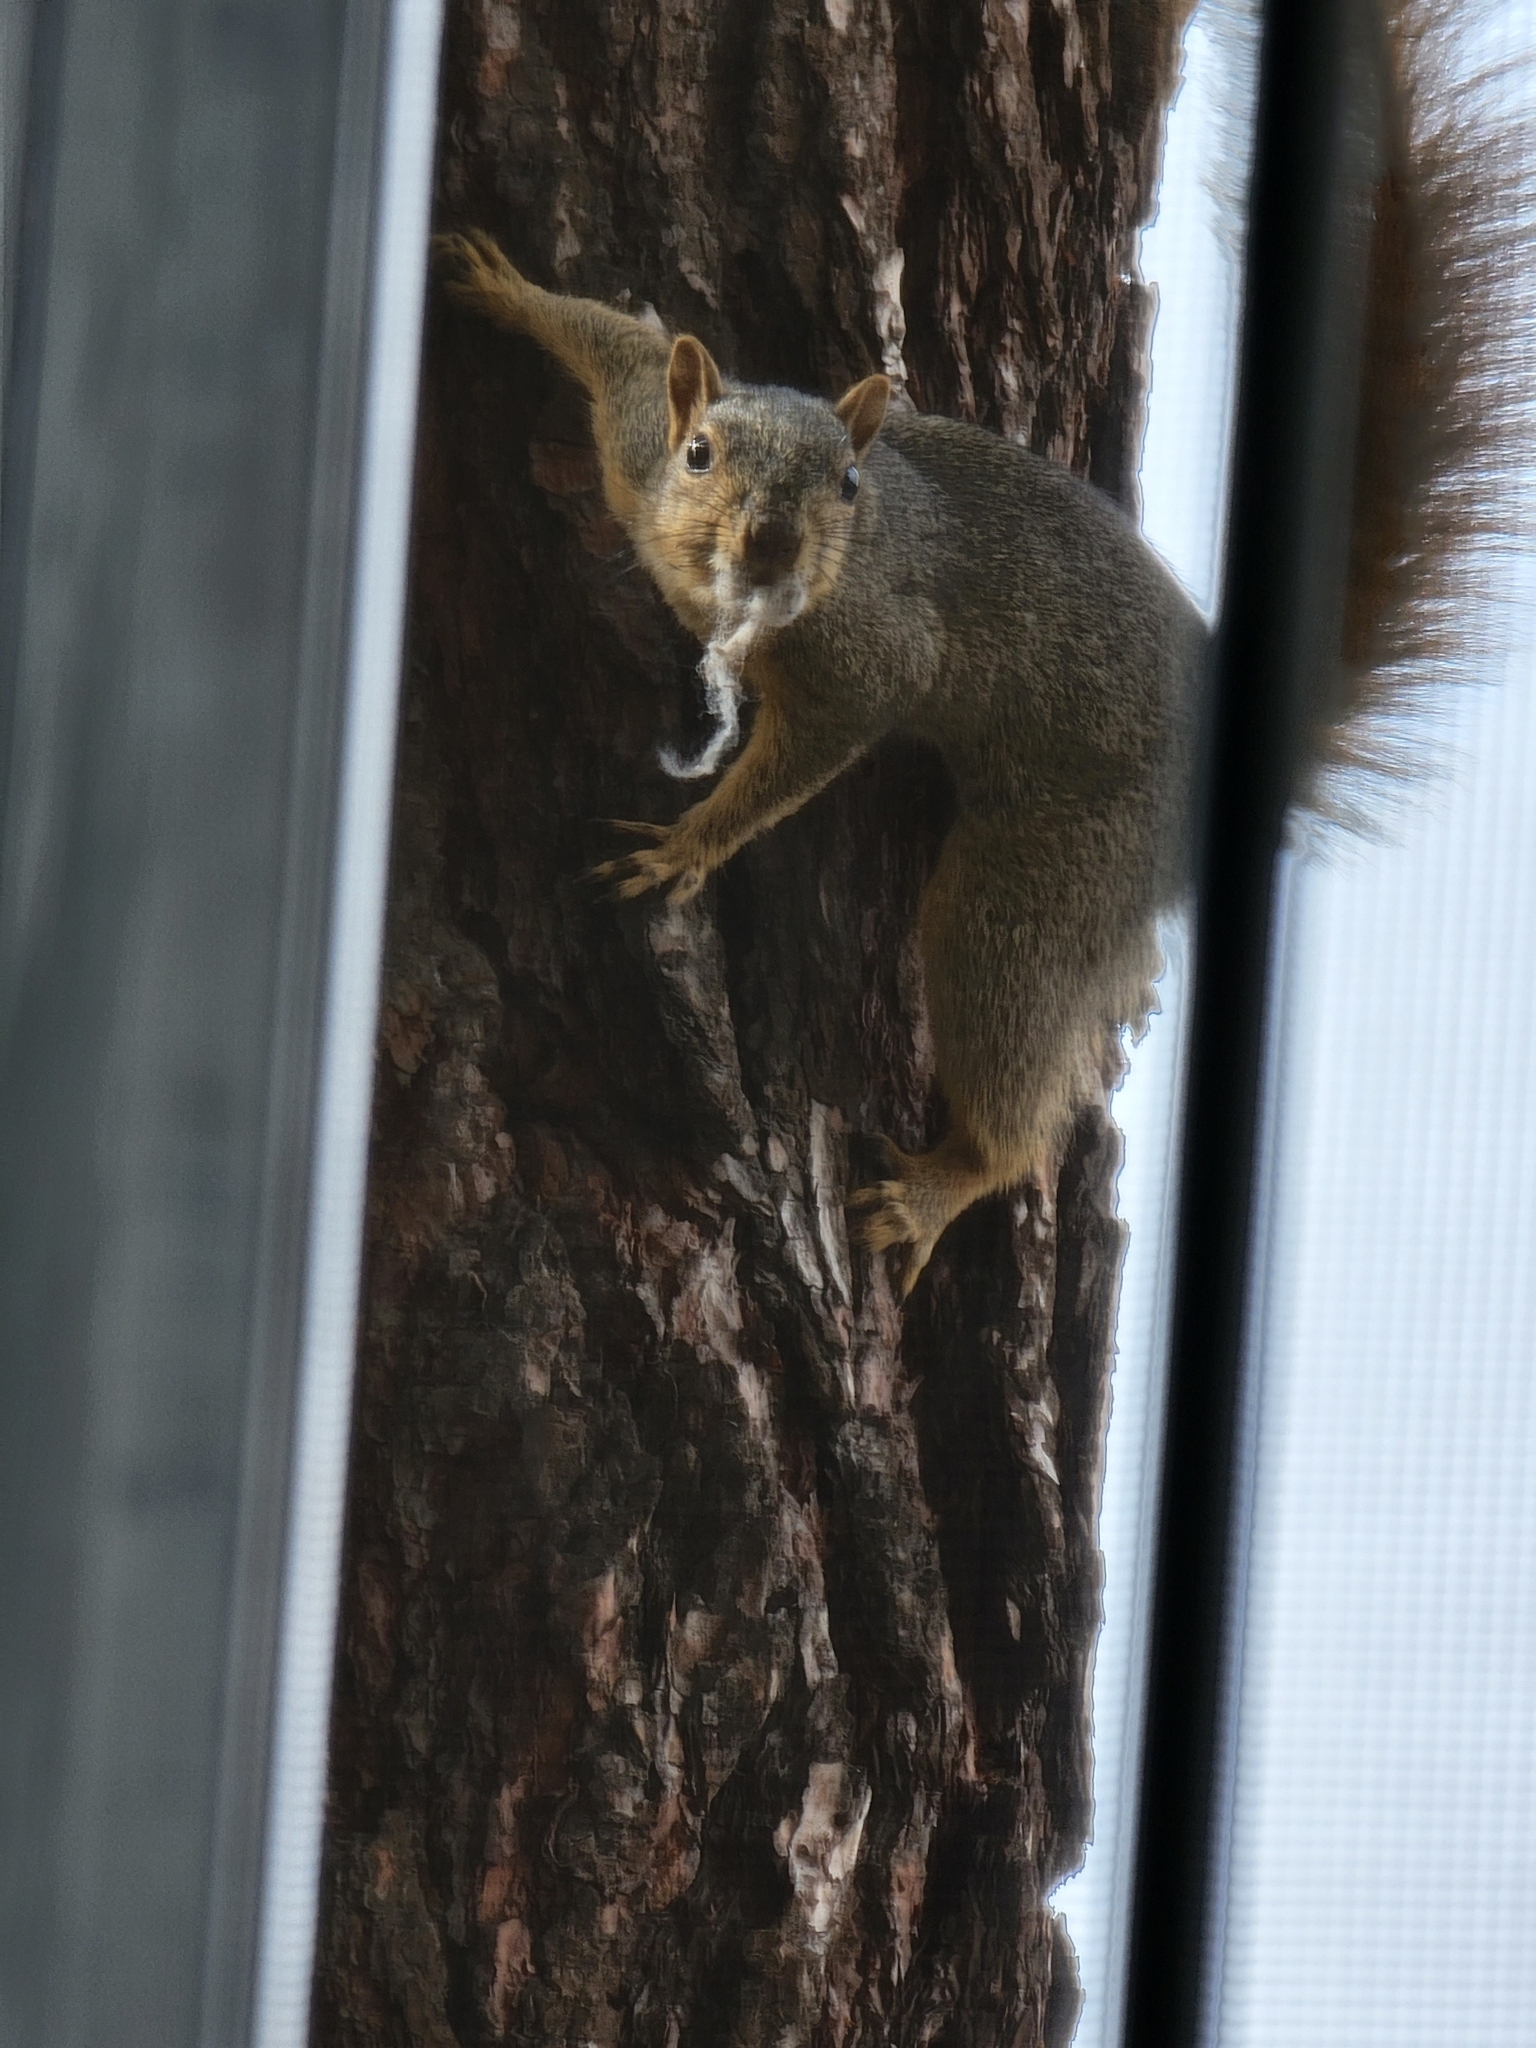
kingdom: Animalia
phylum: Chordata
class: Mammalia
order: Rodentia
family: Sciuridae
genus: Sciurus
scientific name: Sciurus niger
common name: Fox squirrel
